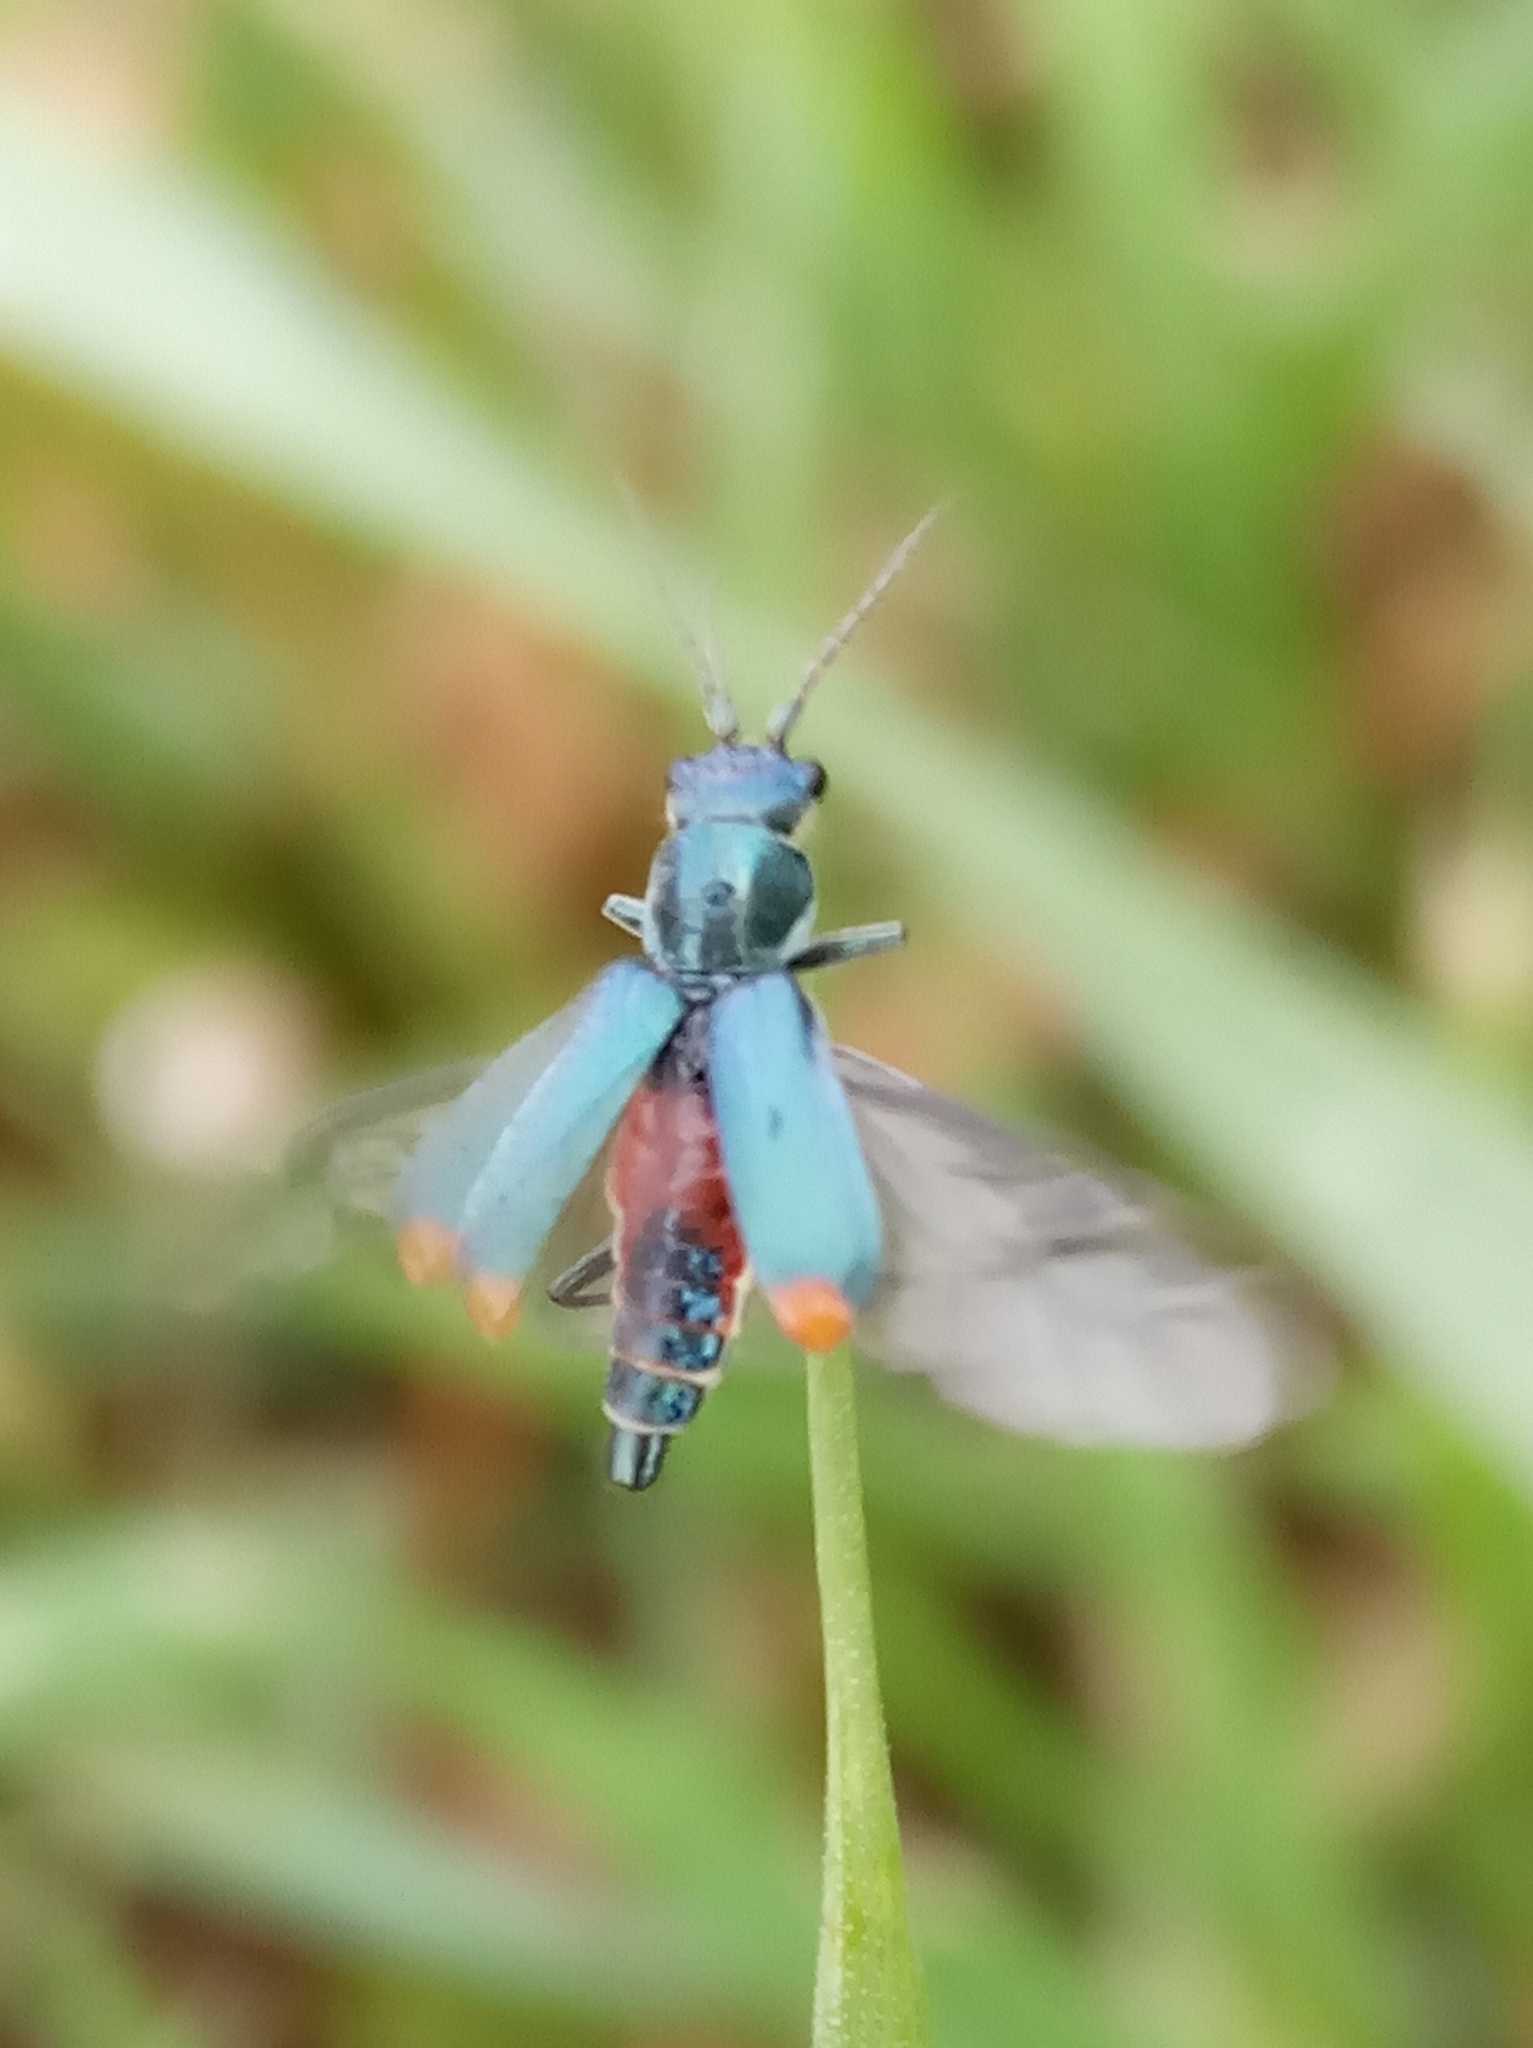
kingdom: Animalia
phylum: Arthropoda
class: Insecta
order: Coleoptera
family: Malachiidae
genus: Cordylepherus
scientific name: Cordylepherus viridis
